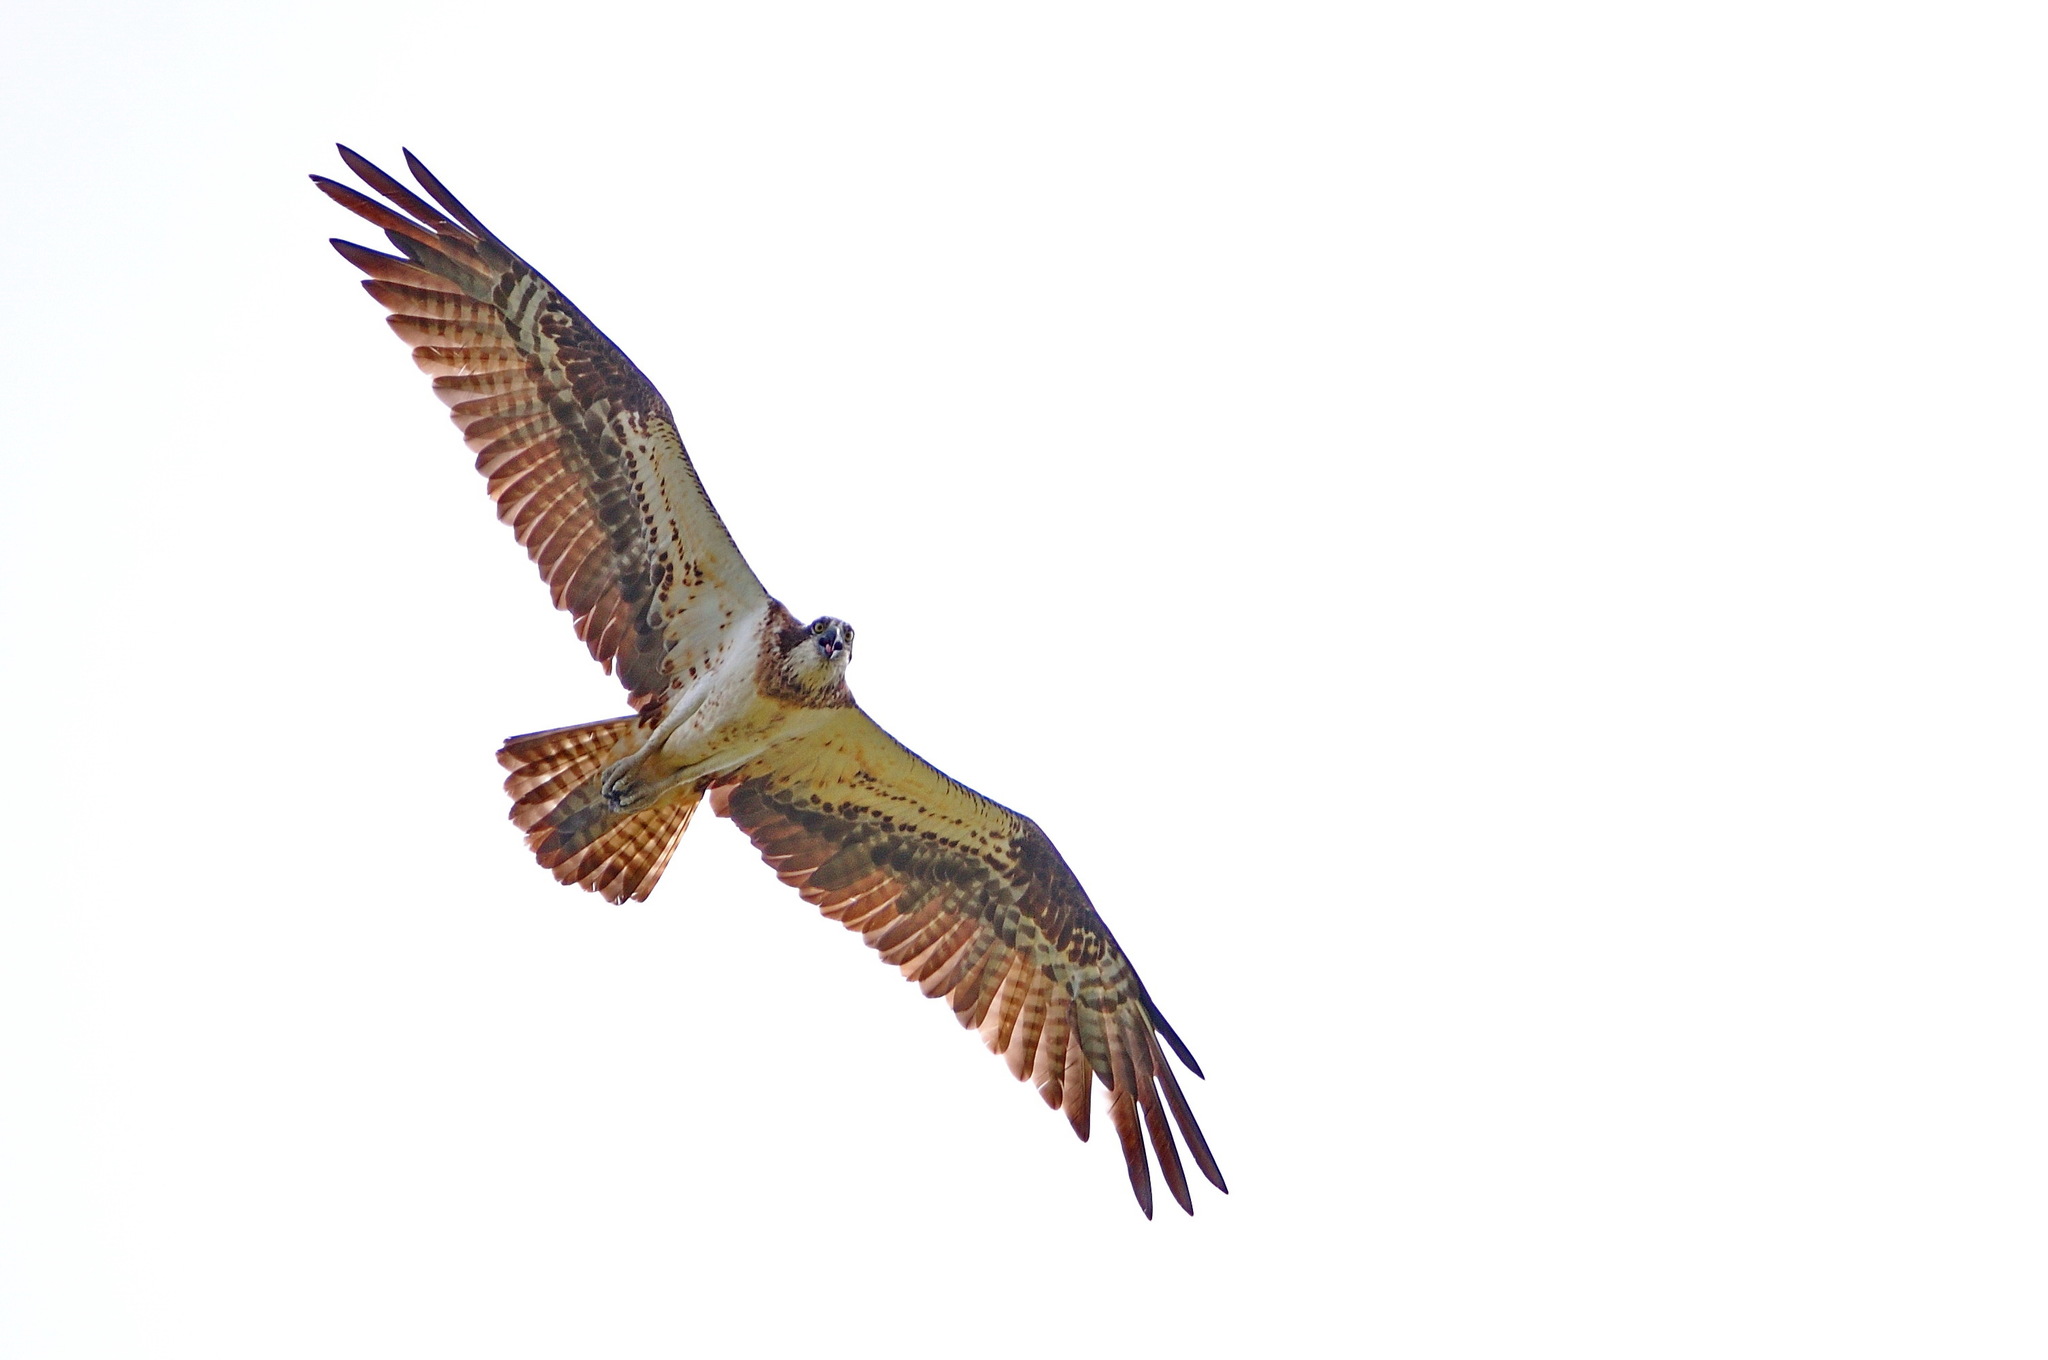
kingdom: Animalia
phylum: Chordata
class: Aves
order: Accipitriformes
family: Pandionidae
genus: Pandion
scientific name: Pandion haliaetus
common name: Osprey
